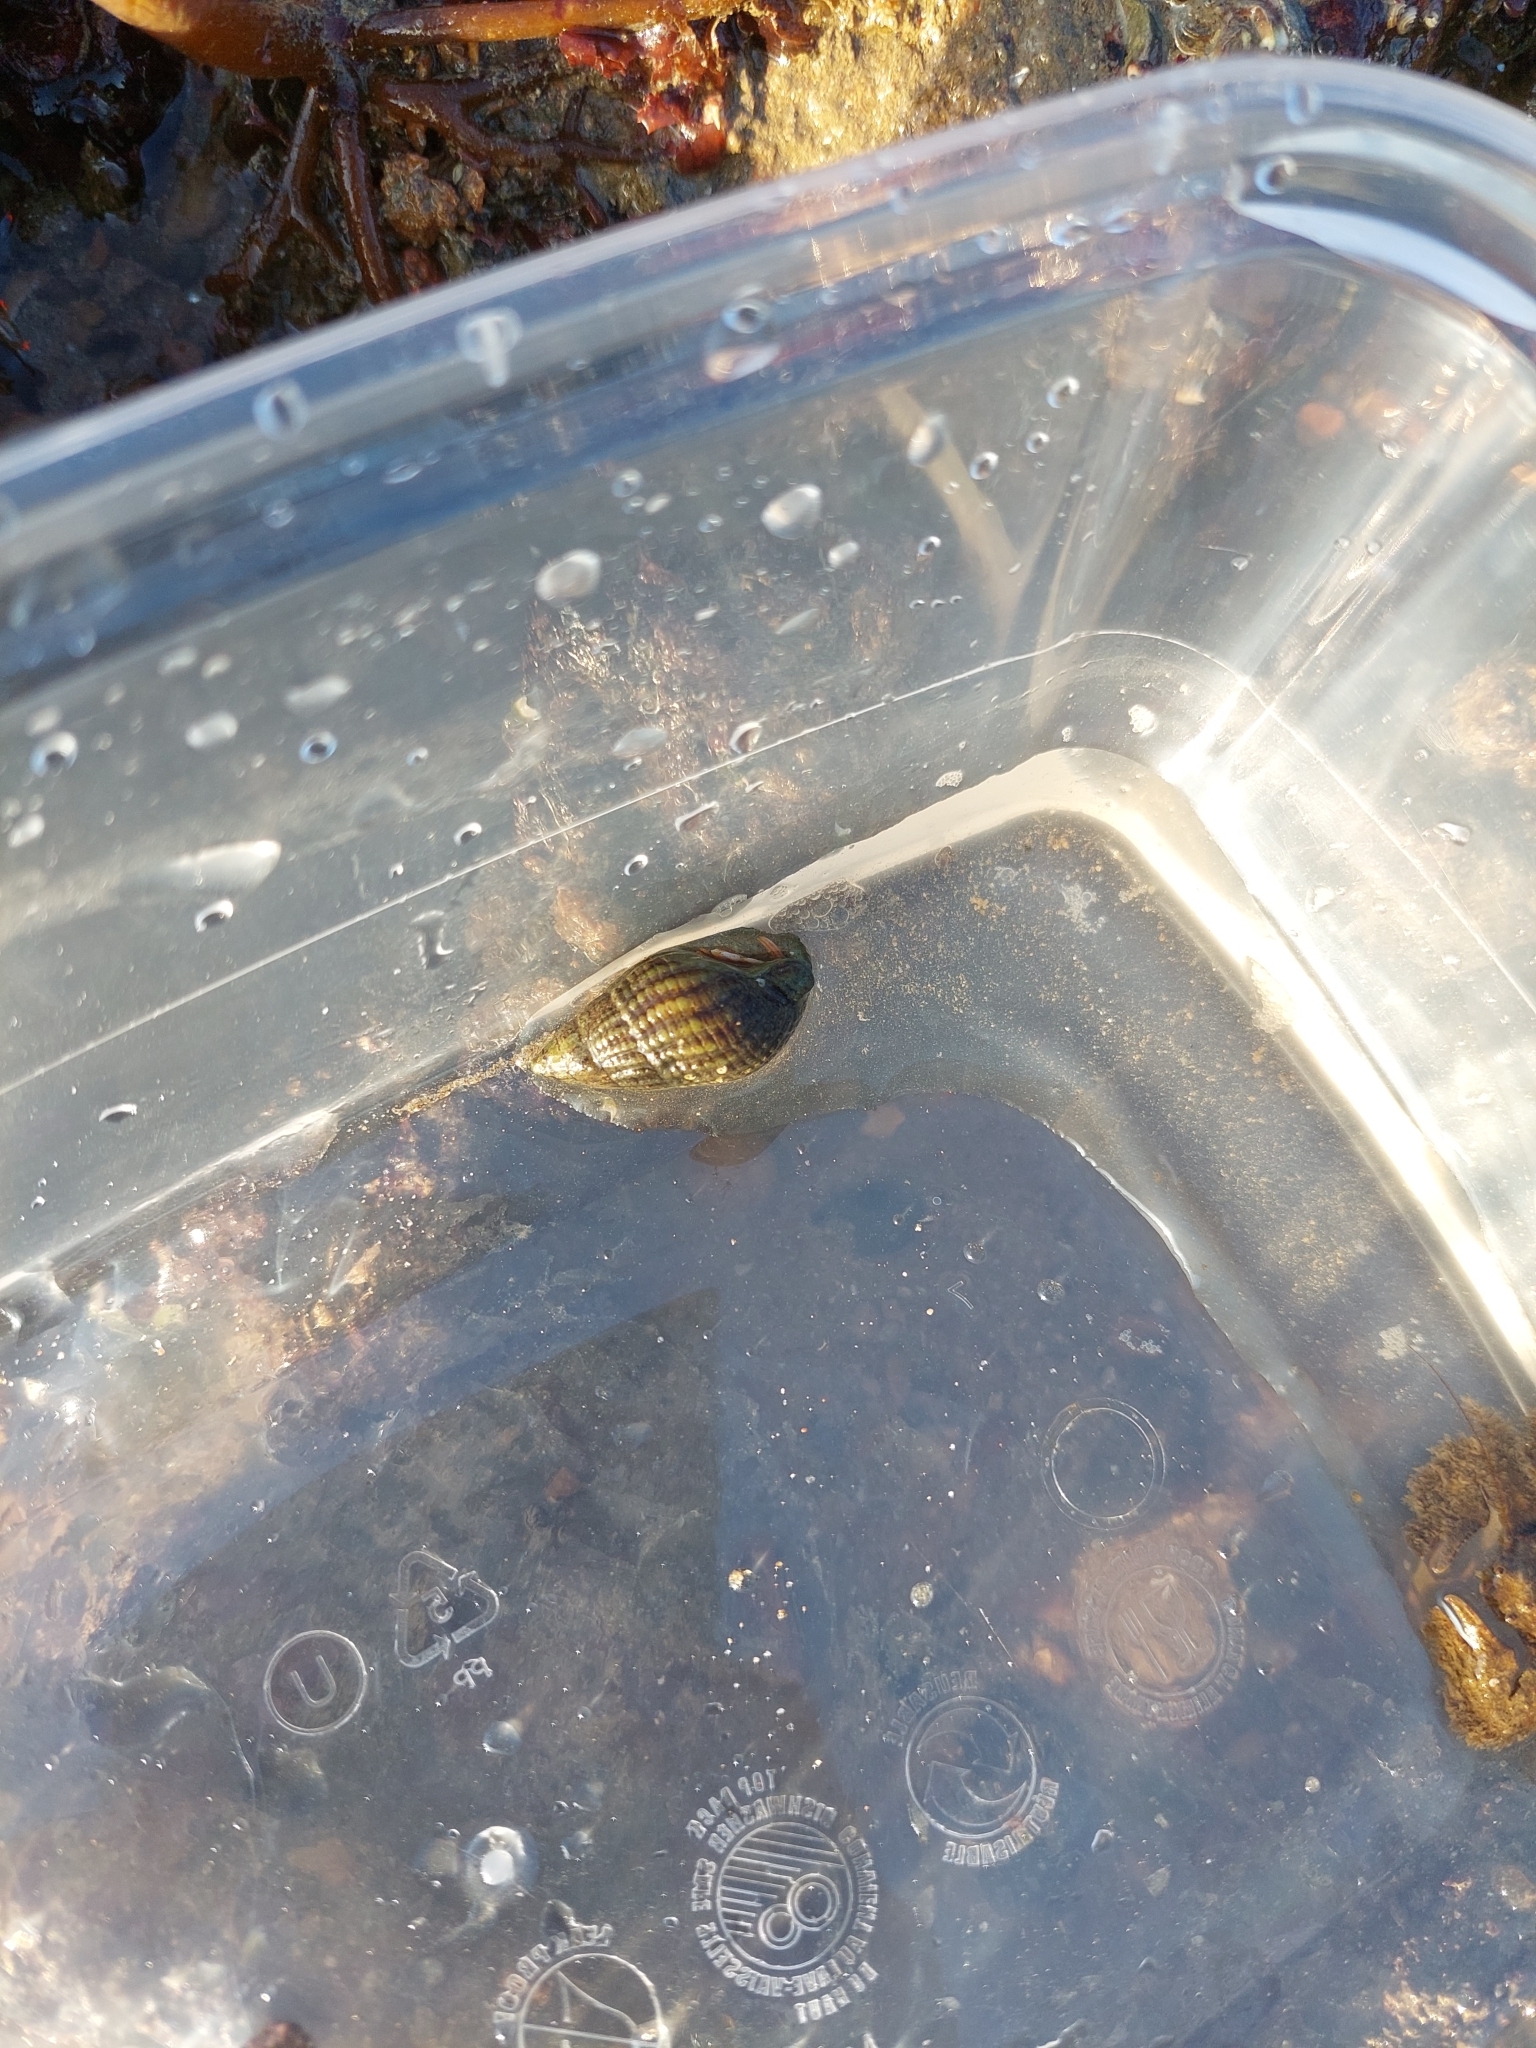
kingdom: Animalia
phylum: Mollusca
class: Gastropoda
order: Neogastropoda
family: Nassariidae
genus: Tritia
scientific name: Tritia reticulata
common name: Netted dog whelk
